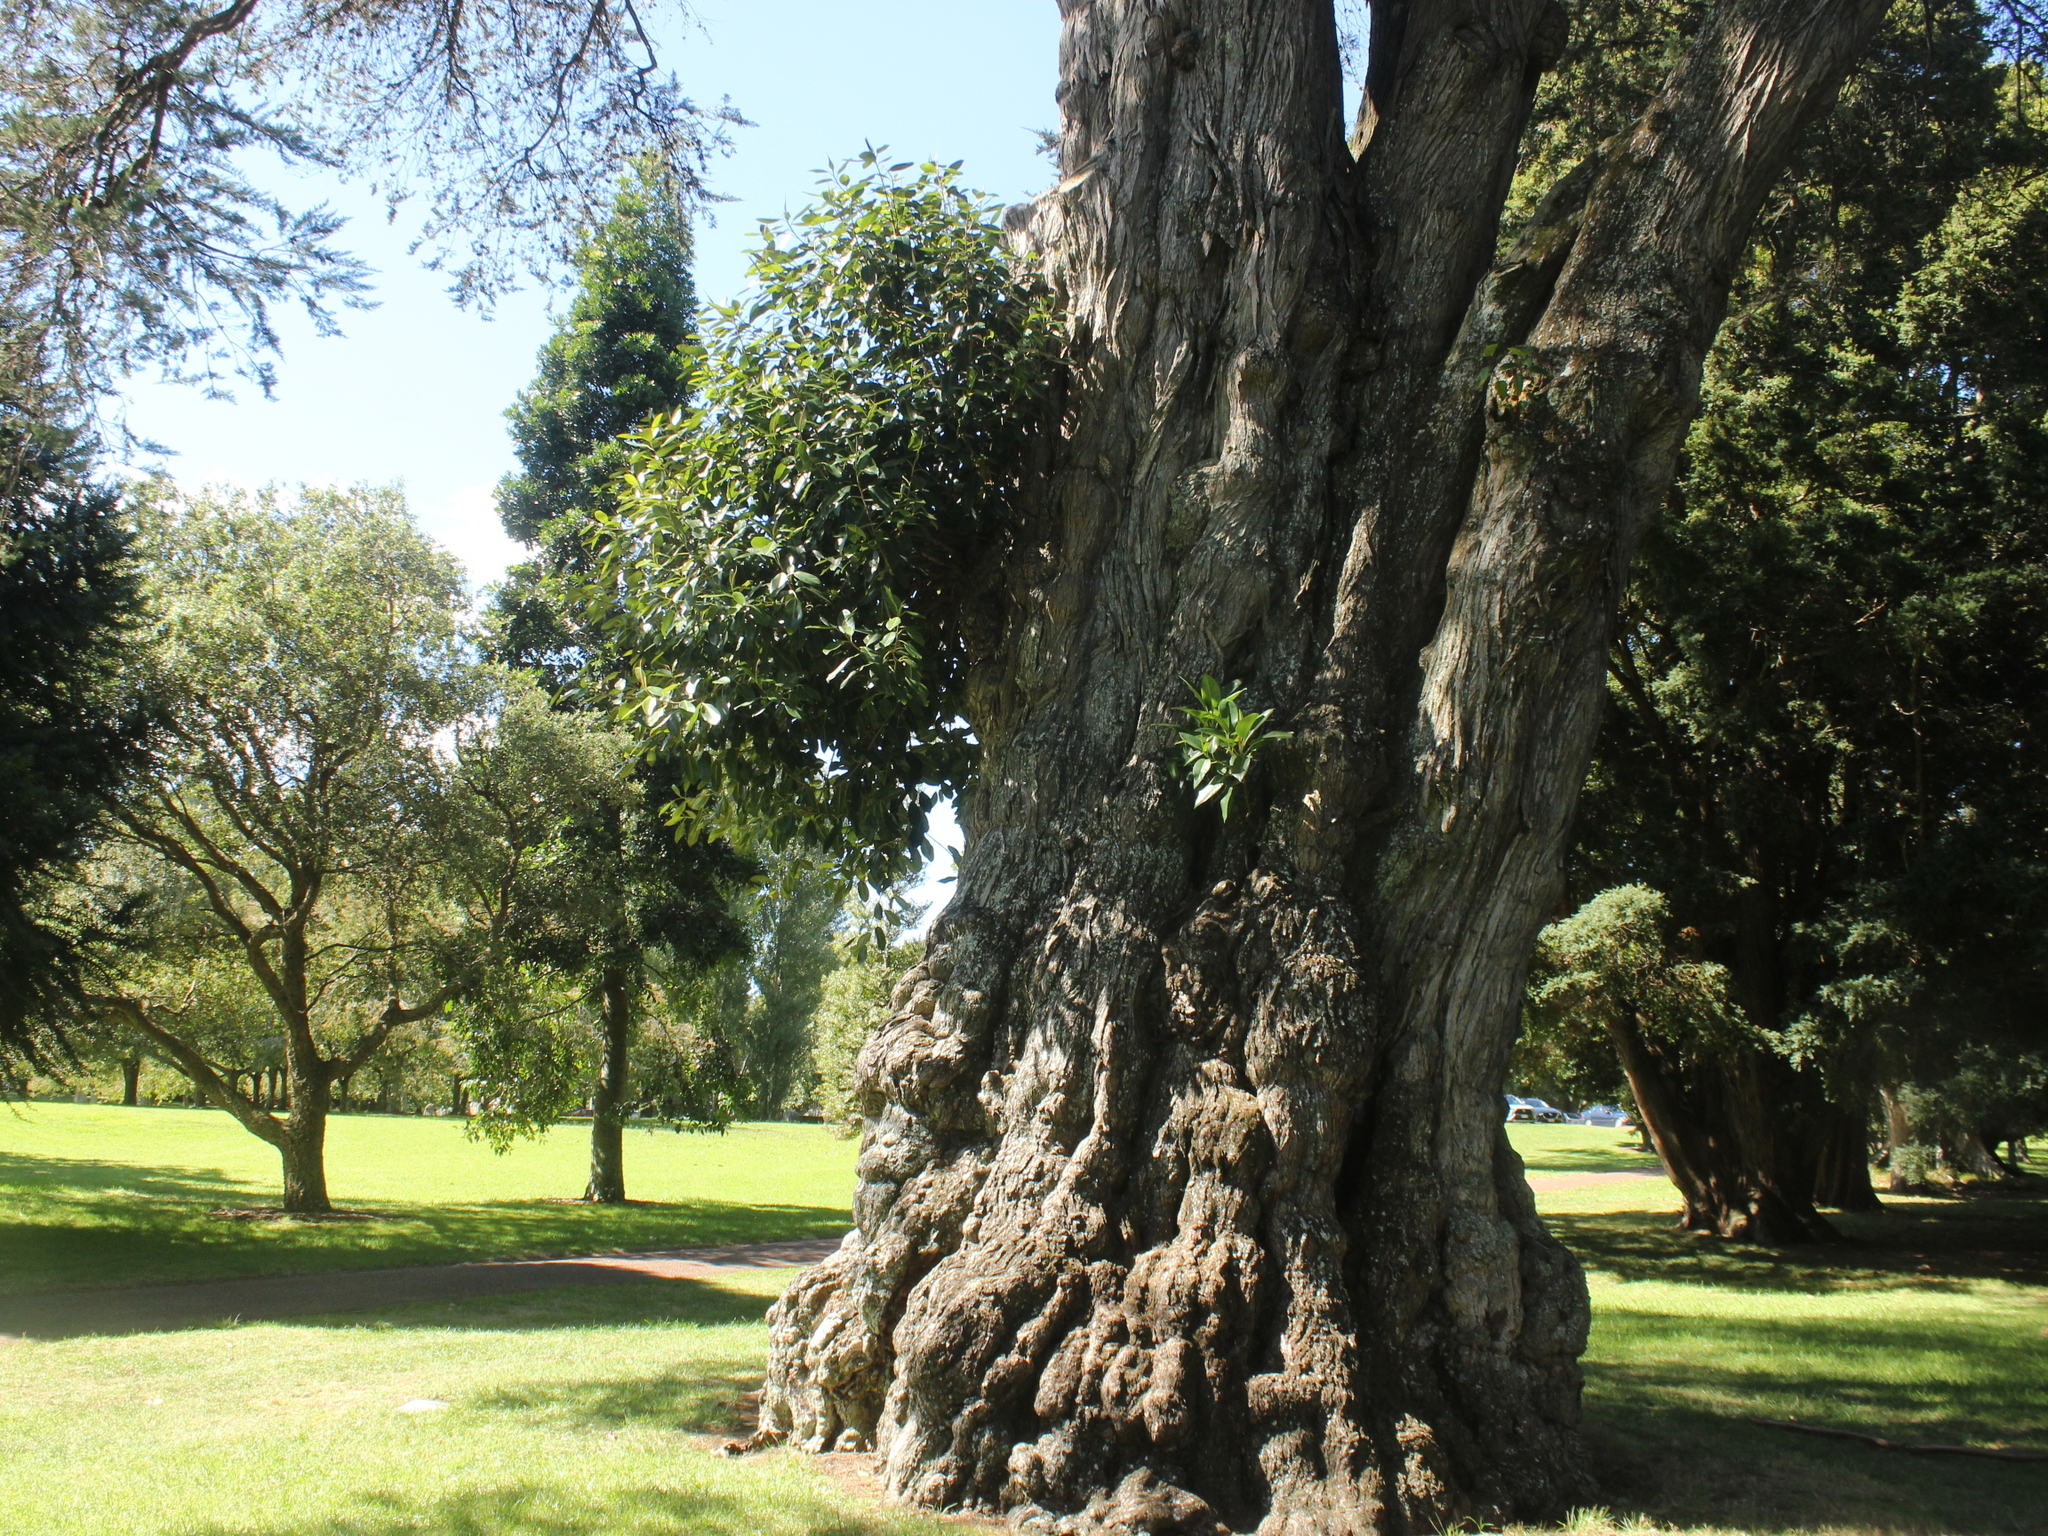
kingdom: Plantae
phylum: Tracheophyta
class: Magnoliopsida
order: Rosales
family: Moraceae
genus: Ficus
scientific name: Ficus macrophylla
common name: Moreton bay fig
